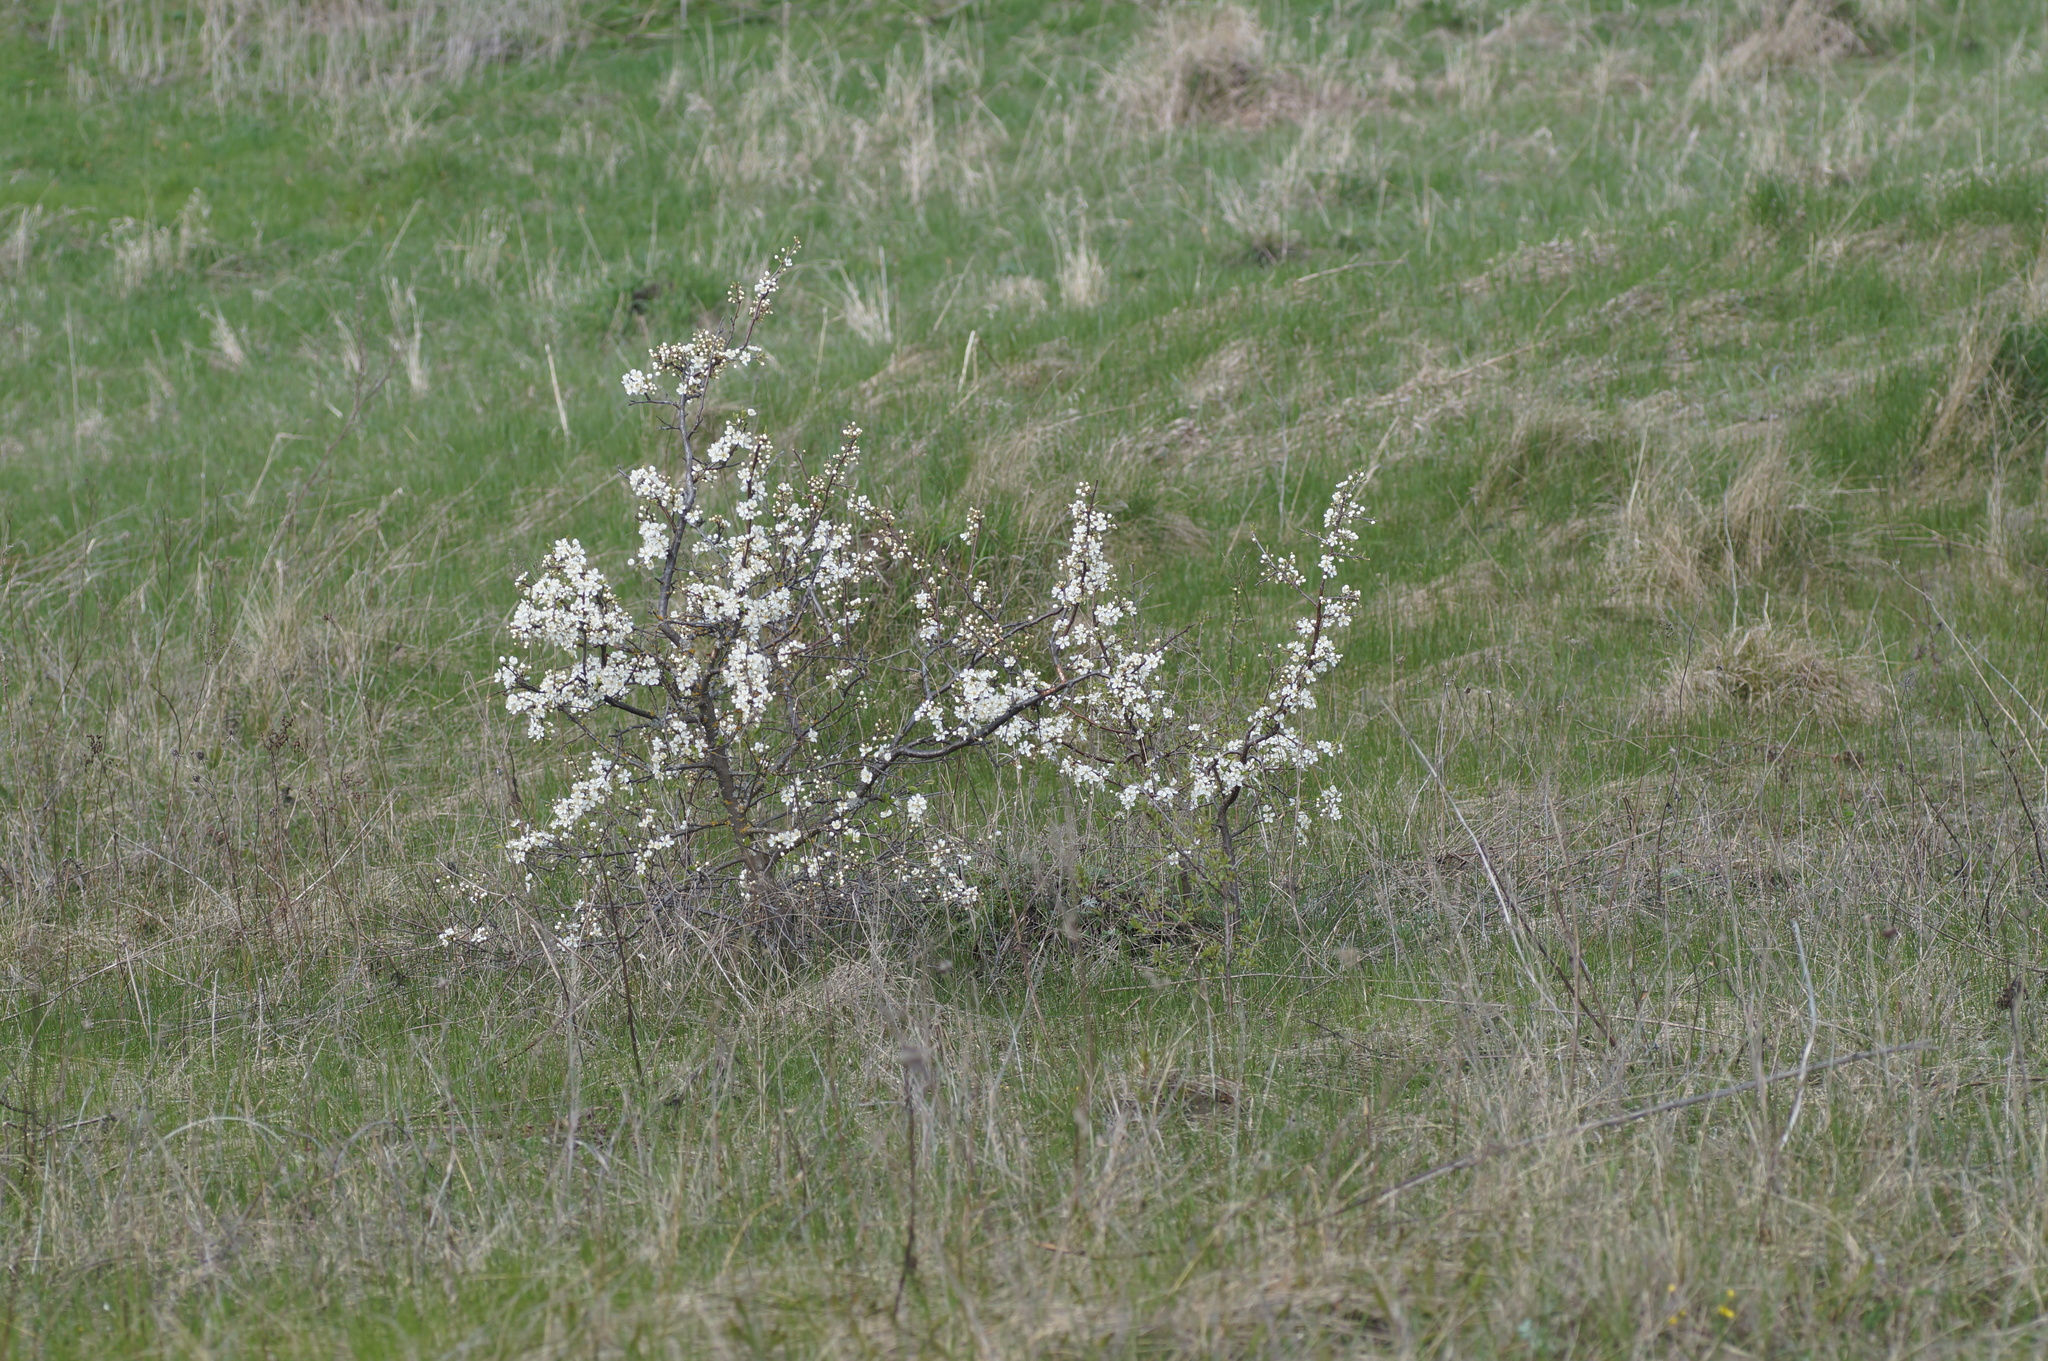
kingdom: Plantae
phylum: Tracheophyta
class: Magnoliopsida
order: Rosales
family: Rosaceae
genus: Prunus
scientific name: Prunus spinosa
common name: Blackthorn
